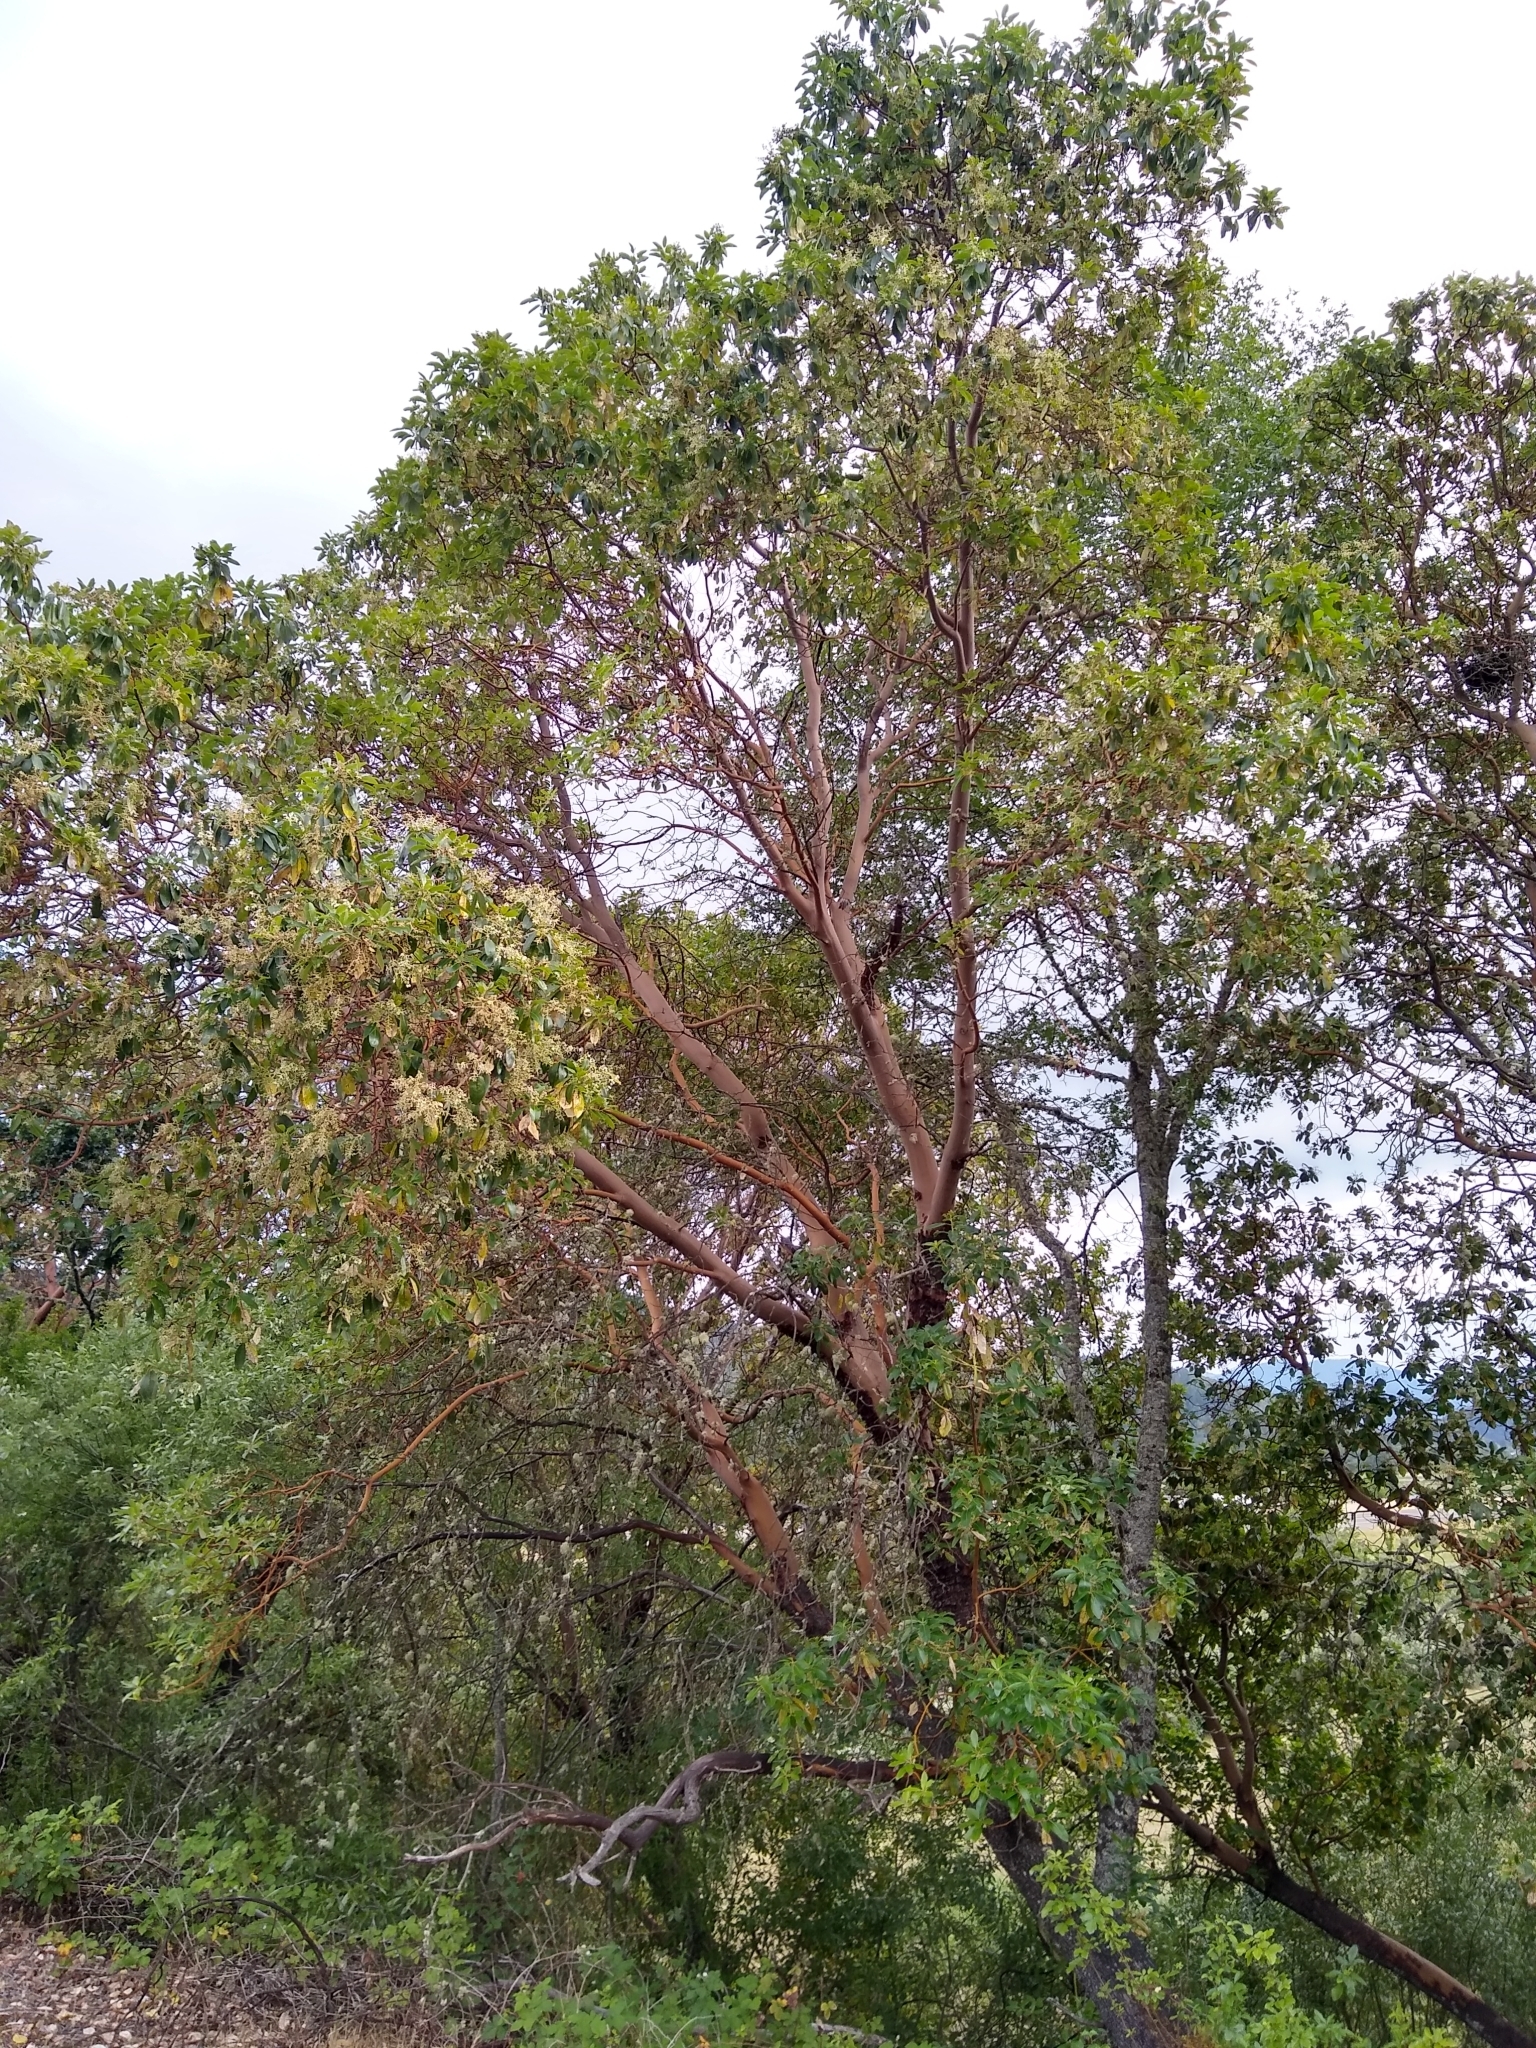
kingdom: Plantae
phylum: Tracheophyta
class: Magnoliopsida
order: Ericales
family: Ericaceae
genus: Arbutus
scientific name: Arbutus menziesii
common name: Pacific madrone
